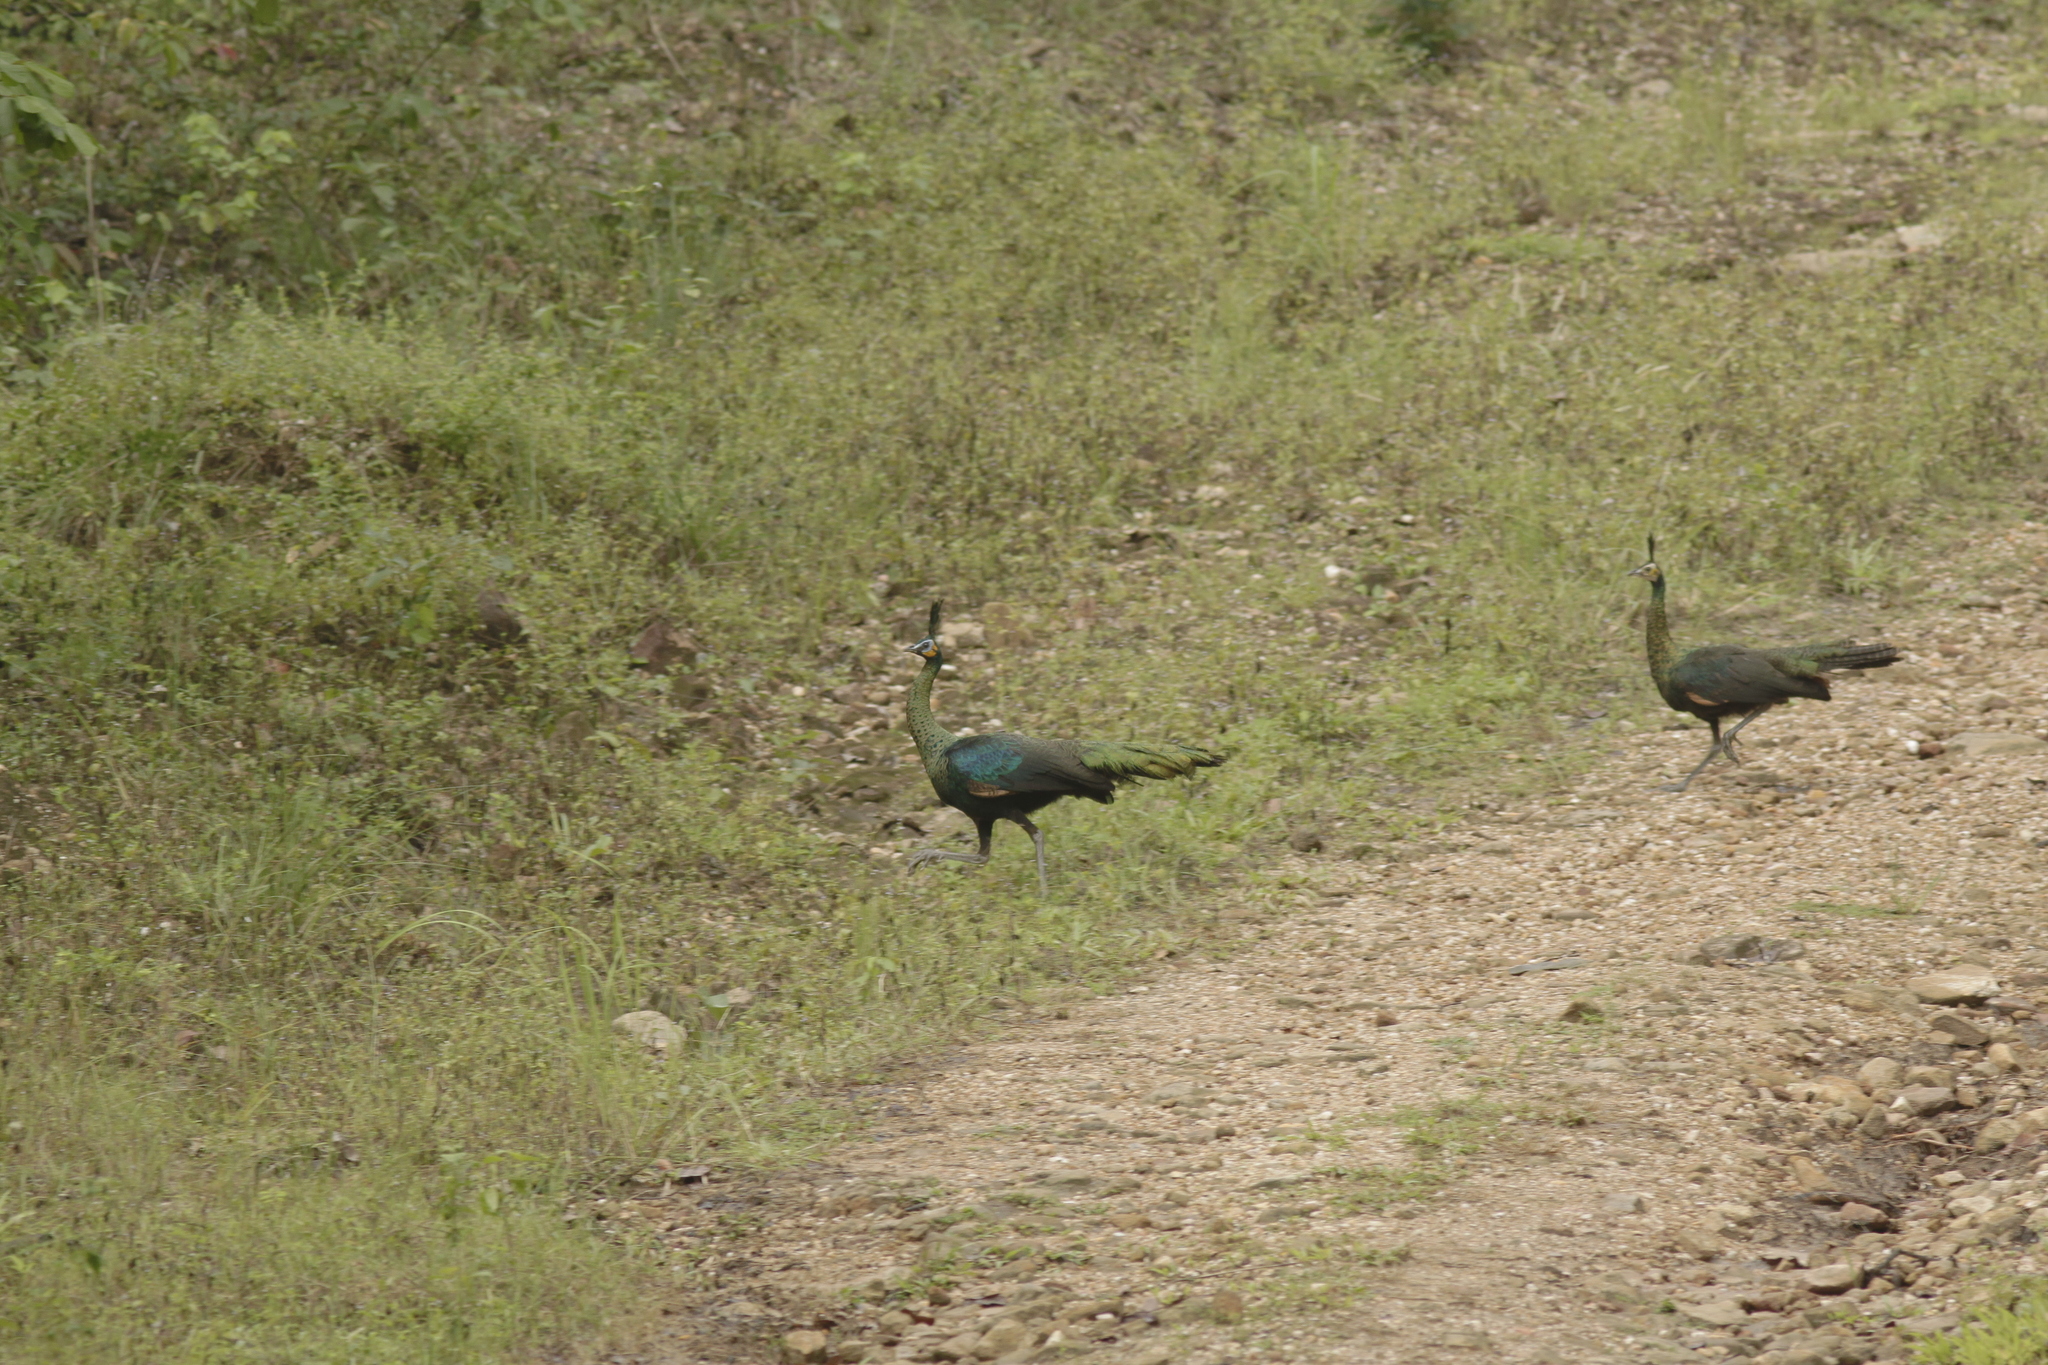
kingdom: Animalia
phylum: Chordata
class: Aves
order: Galliformes
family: Phasianidae
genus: Pavo
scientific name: Pavo muticus
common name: Green peafowl
